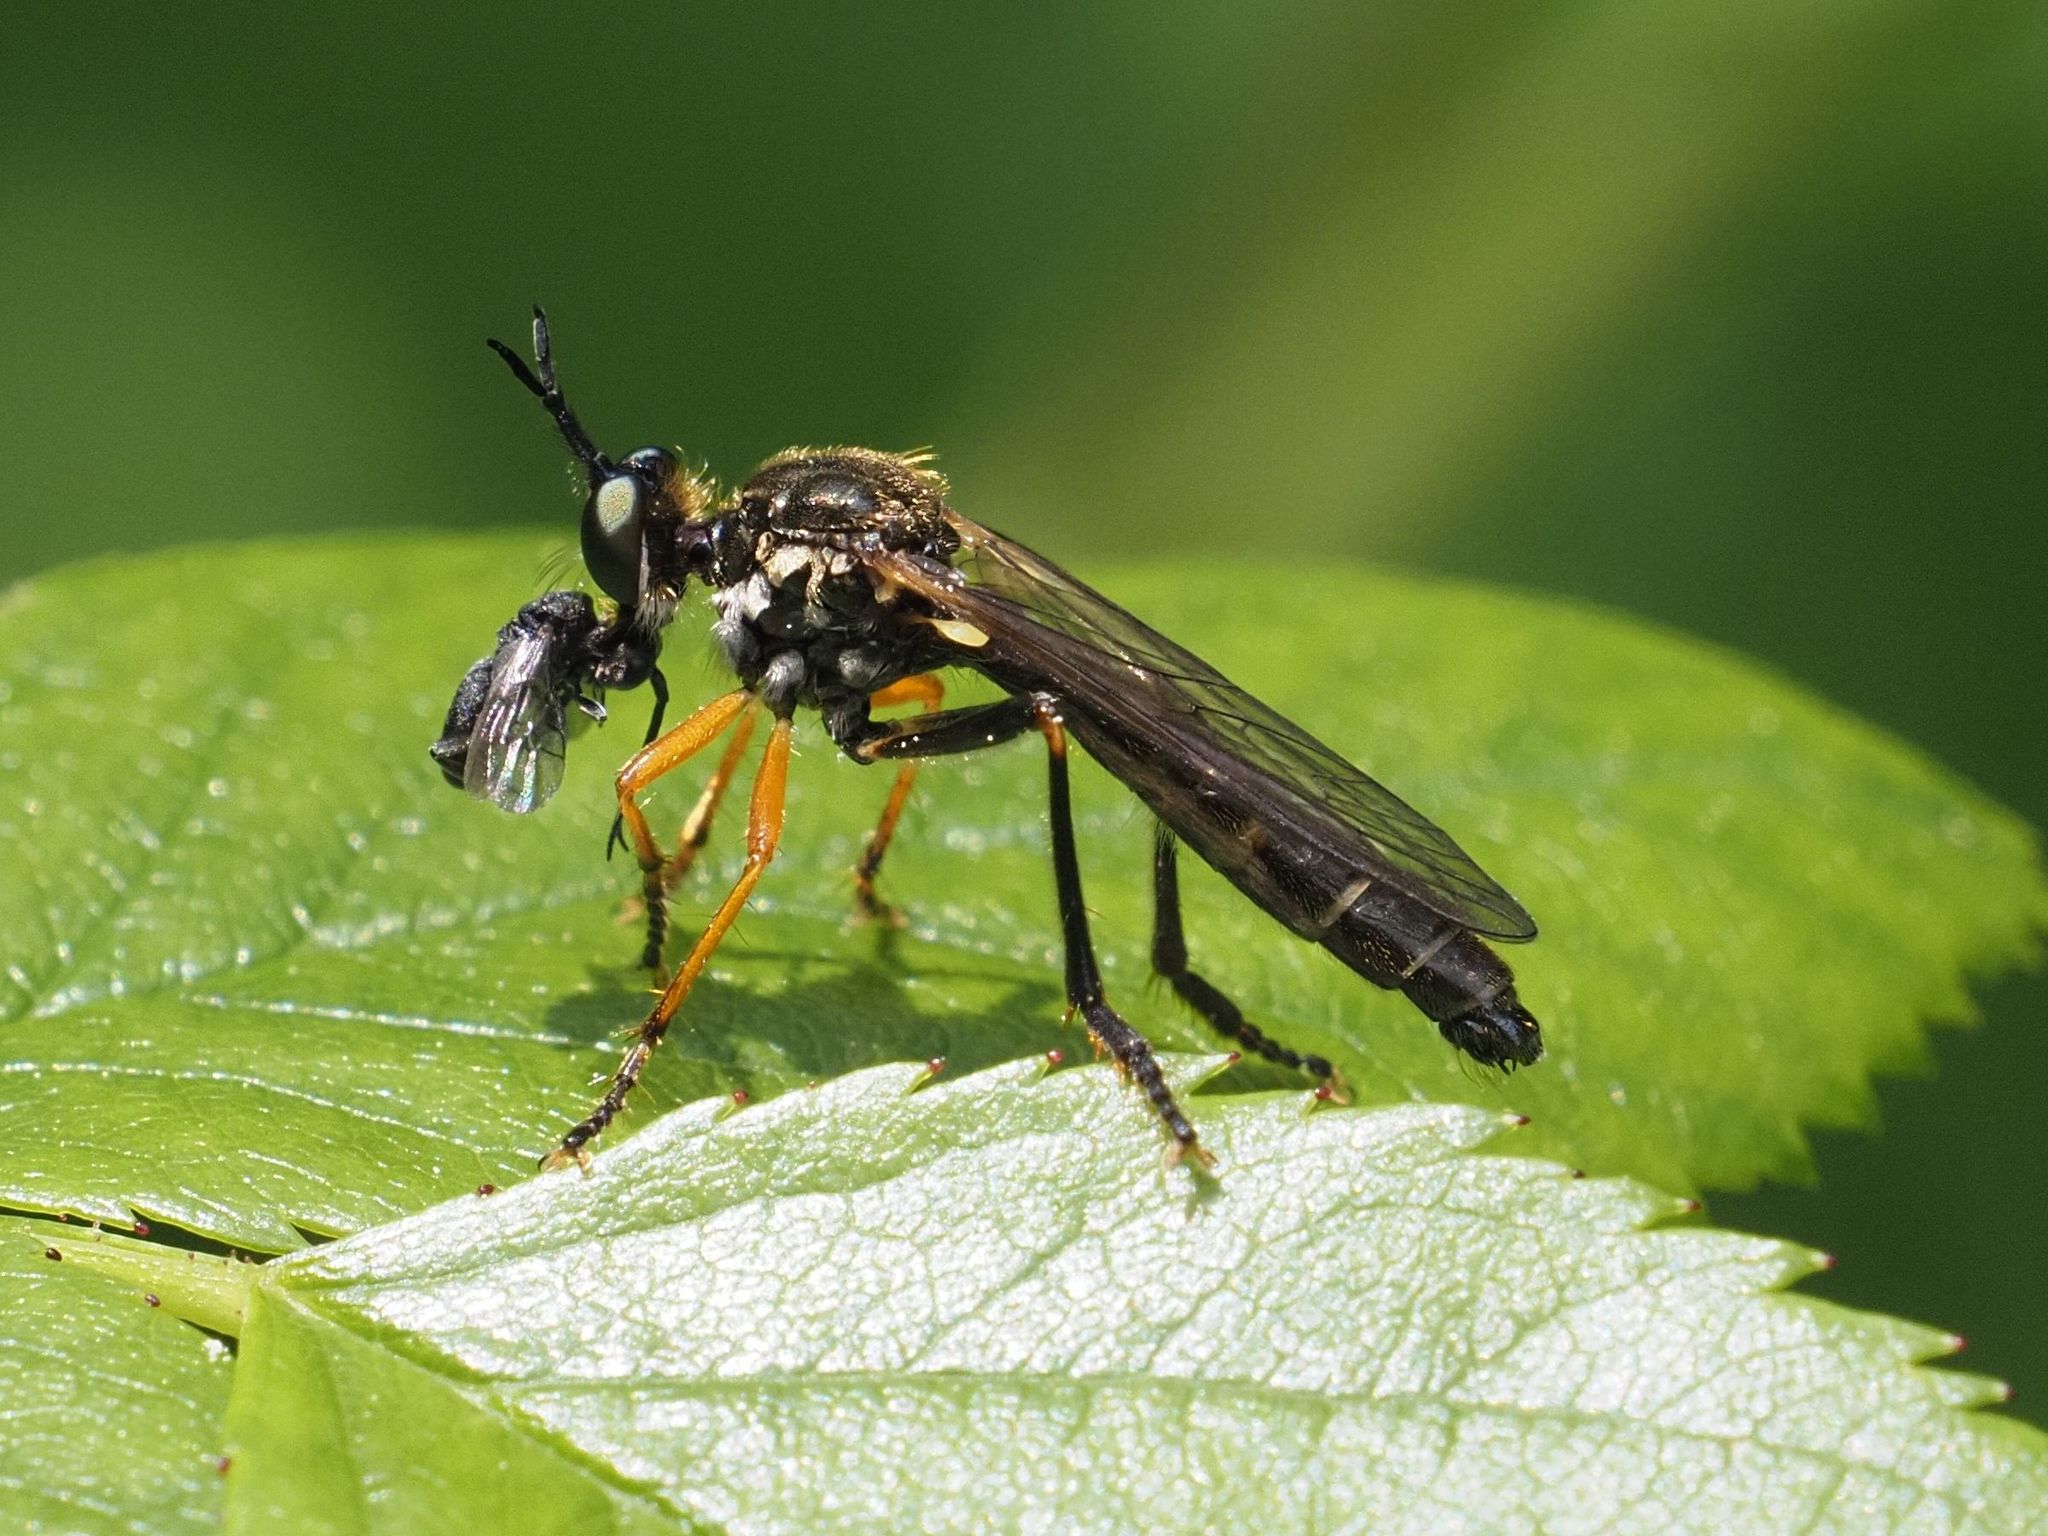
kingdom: Animalia
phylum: Arthropoda
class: Insecta
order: Diptera
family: Asilidae
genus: Dioctria
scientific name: Dioctria rufipes
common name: Common red-legged robberfly
